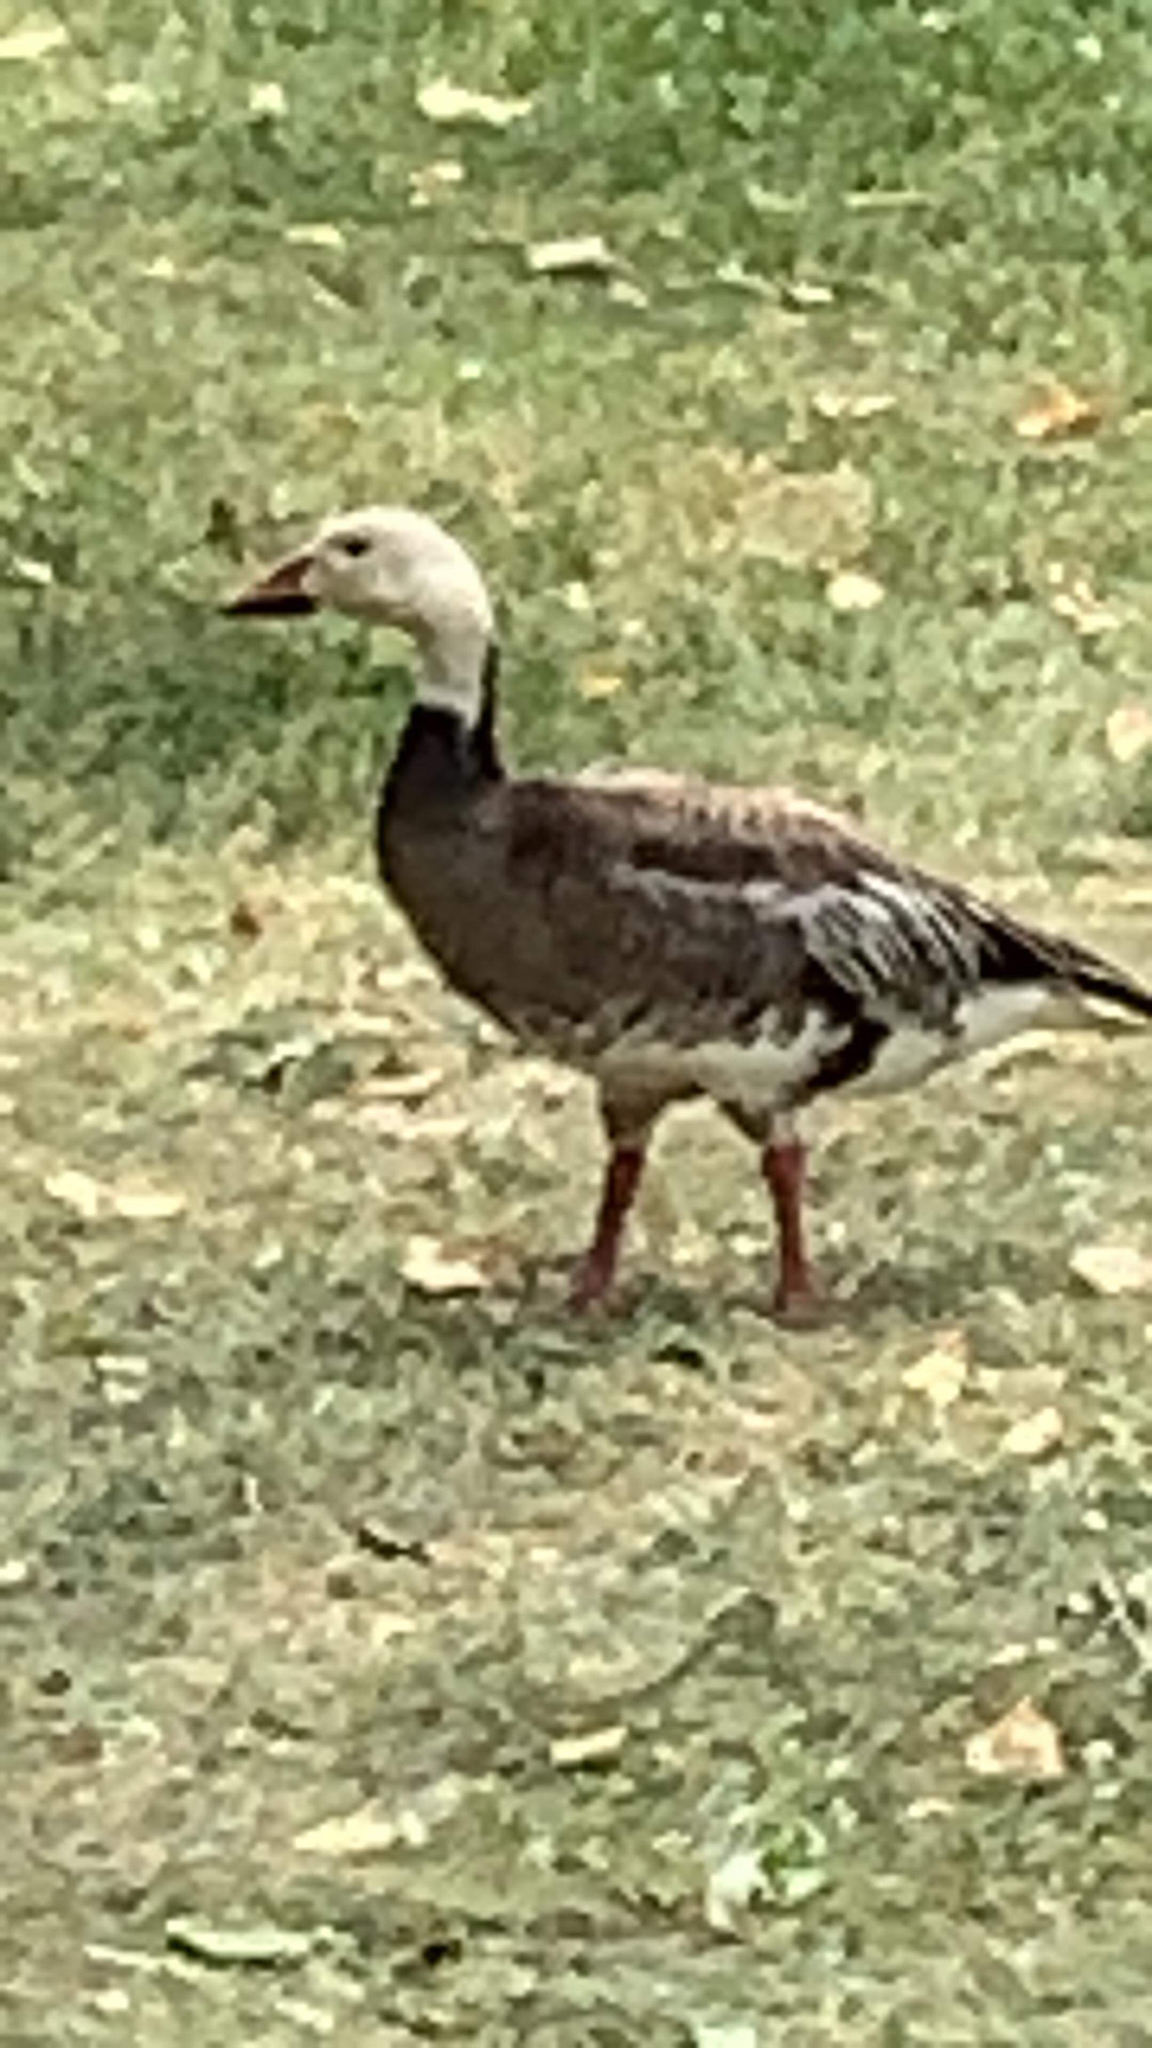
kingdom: Animalia
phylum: Chordata
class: Aves
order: Anseriformes
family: Anatidae
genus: Anser
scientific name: Anser caerulescens
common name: Snow goose
